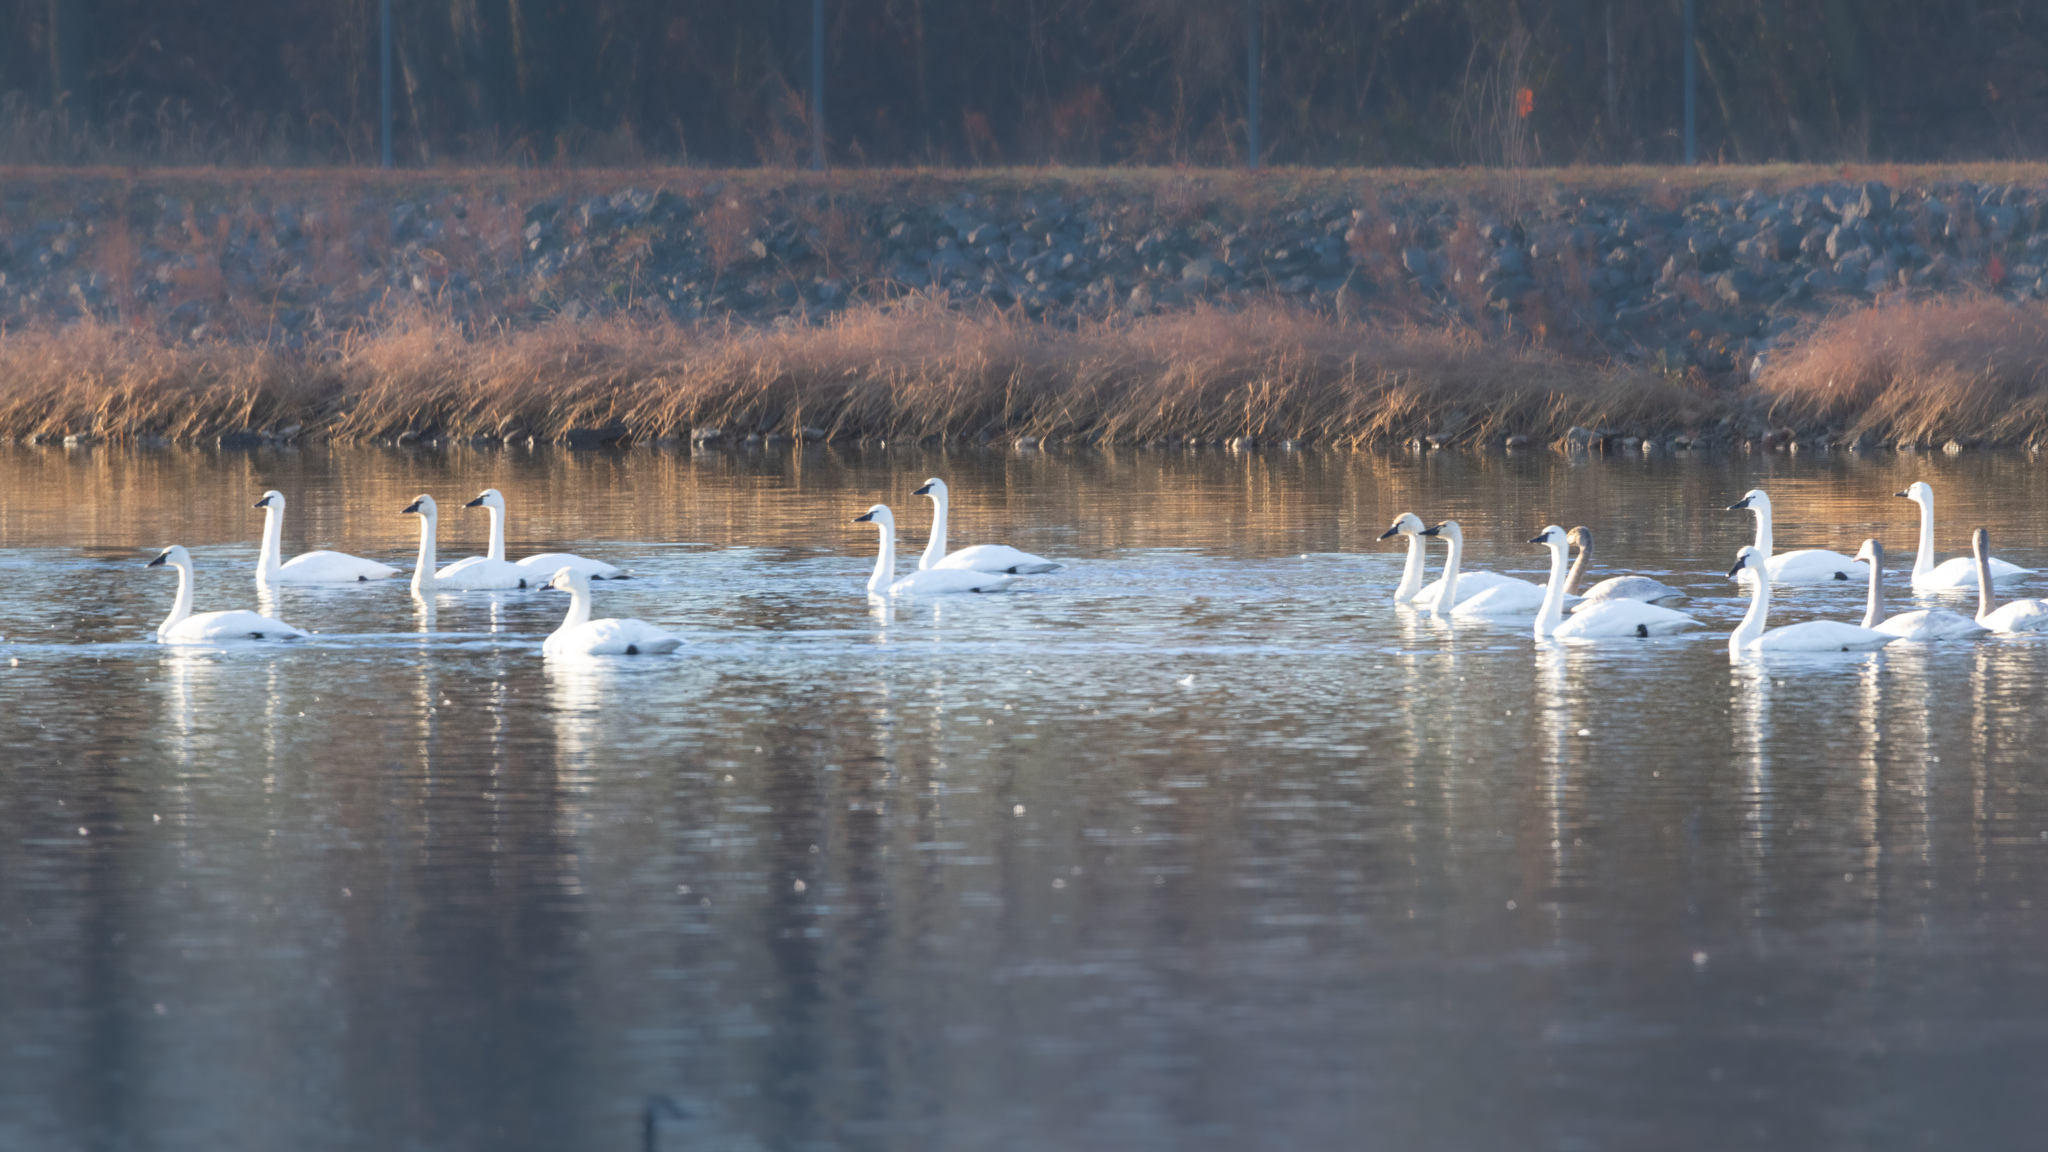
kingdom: Animalia
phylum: Chordata
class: Aves
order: Anseriformes
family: Anatidae
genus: Cygnus
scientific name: Cygnus columbianus
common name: Tundra swan
